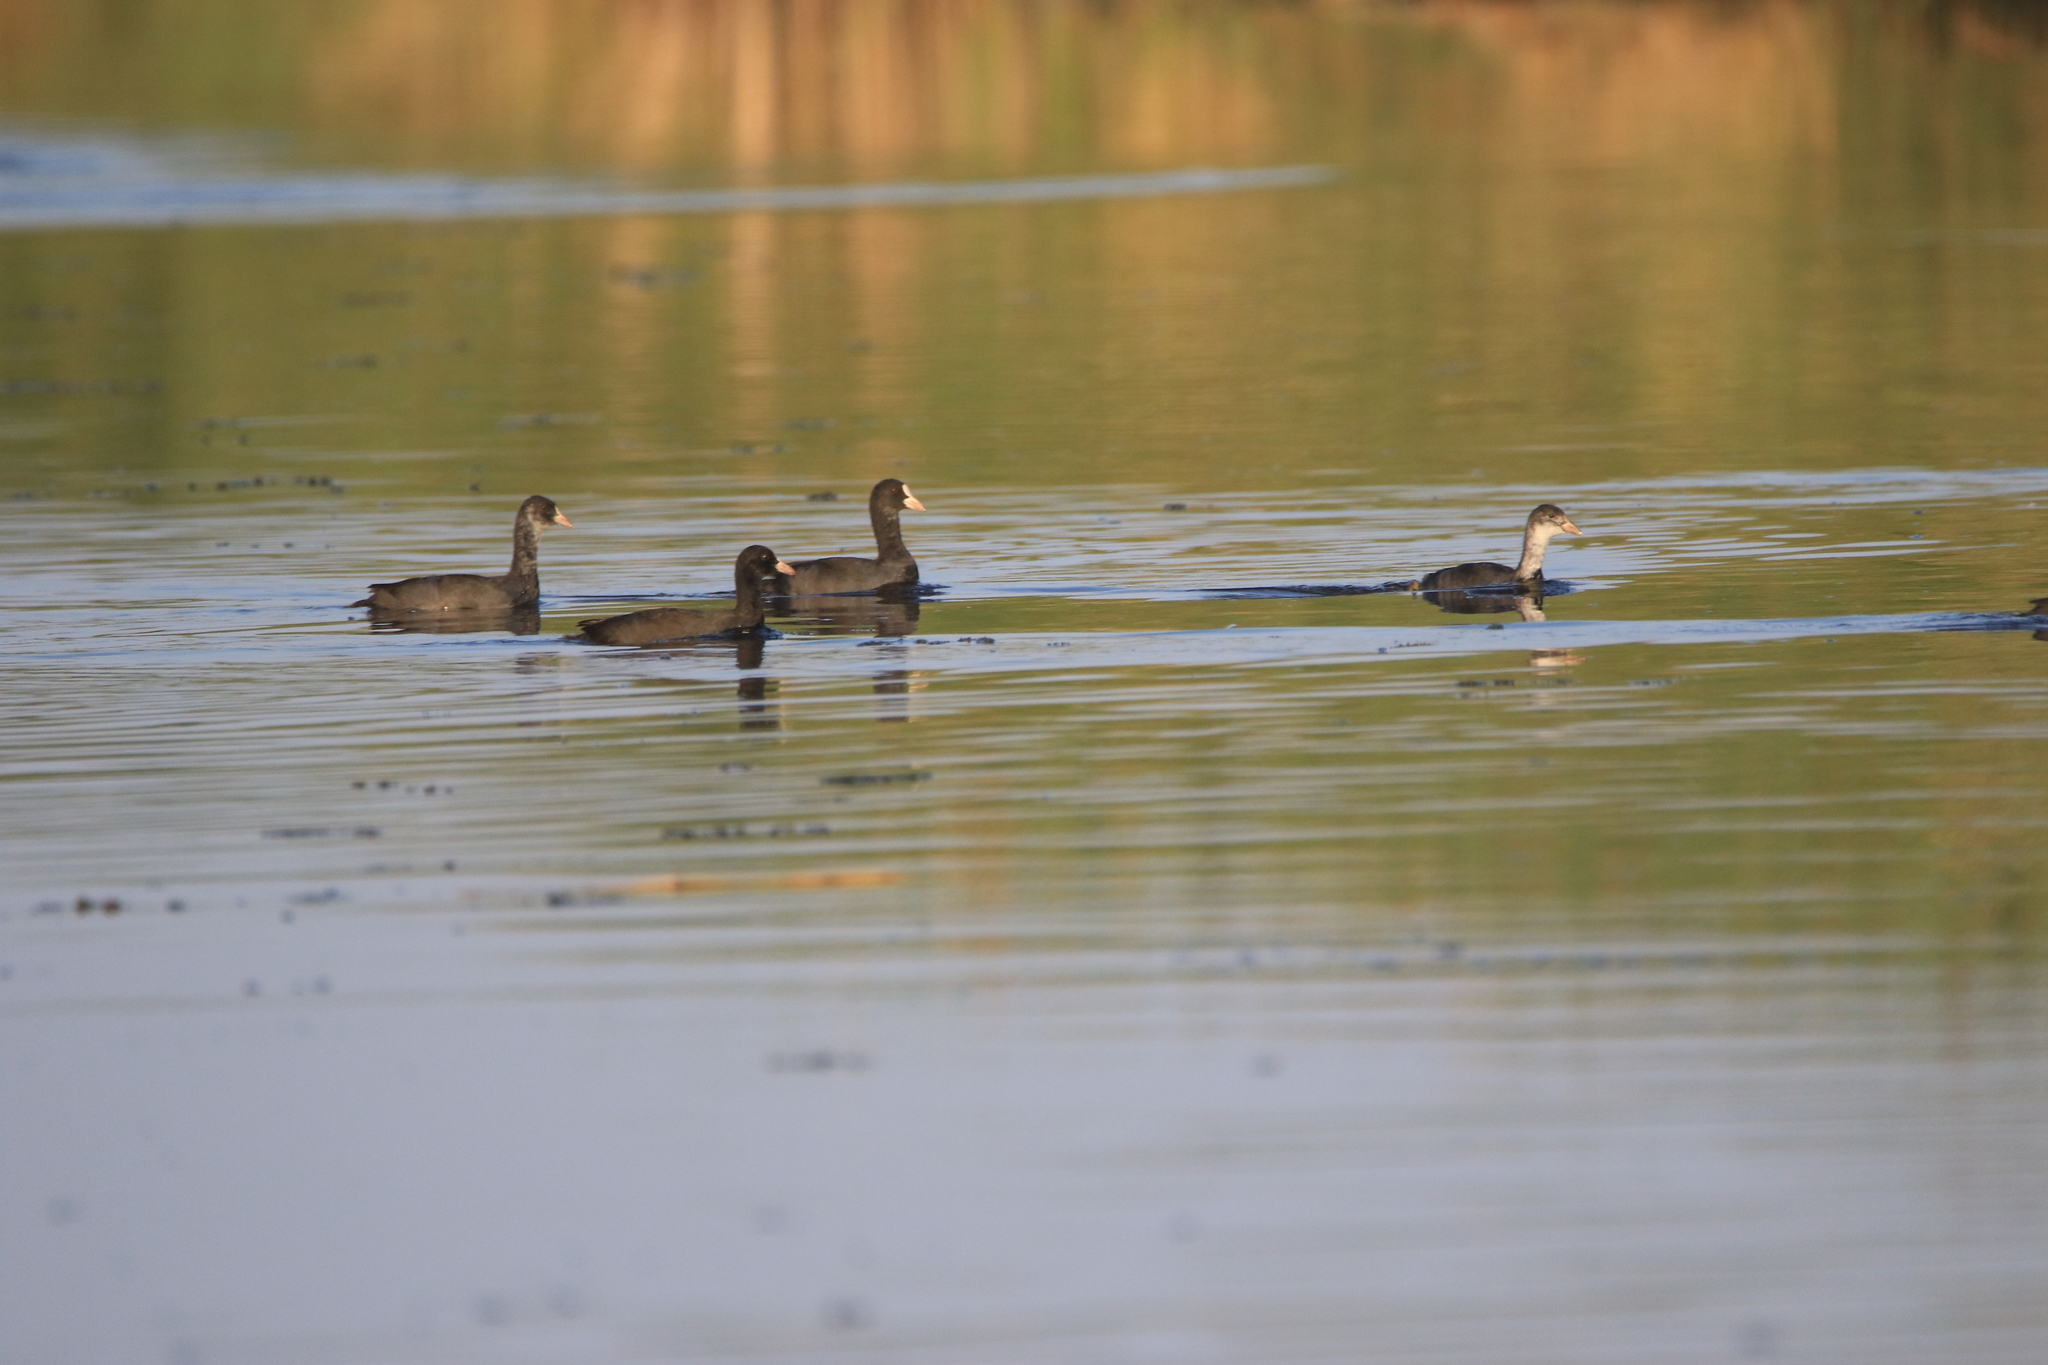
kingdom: Animalia
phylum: Chordata
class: Aves
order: Gruiformes
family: Rallidae
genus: Fulica
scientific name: Fulica atra
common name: Eurasian coot
